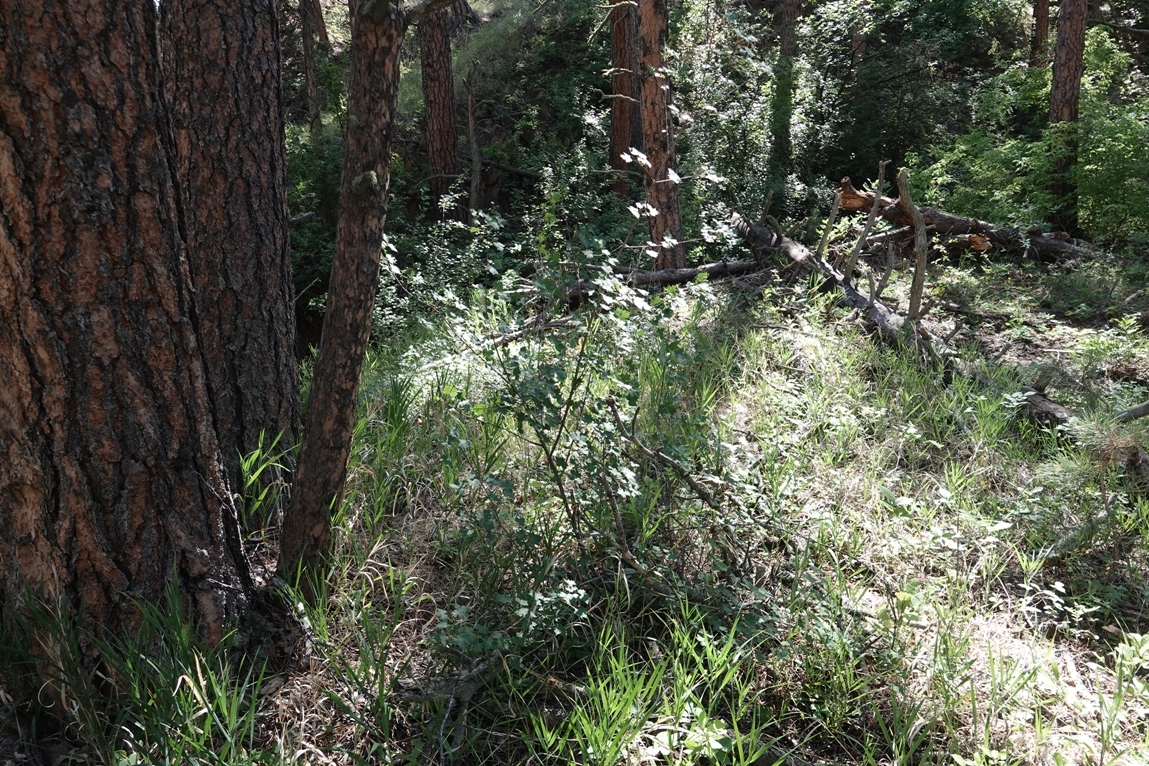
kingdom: Plantae
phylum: Tracheophyta
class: Magnoliopsida
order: Sapindales
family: Sapindaceae
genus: Acer
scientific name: Acer glabrum
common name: Rocky mountain maple
